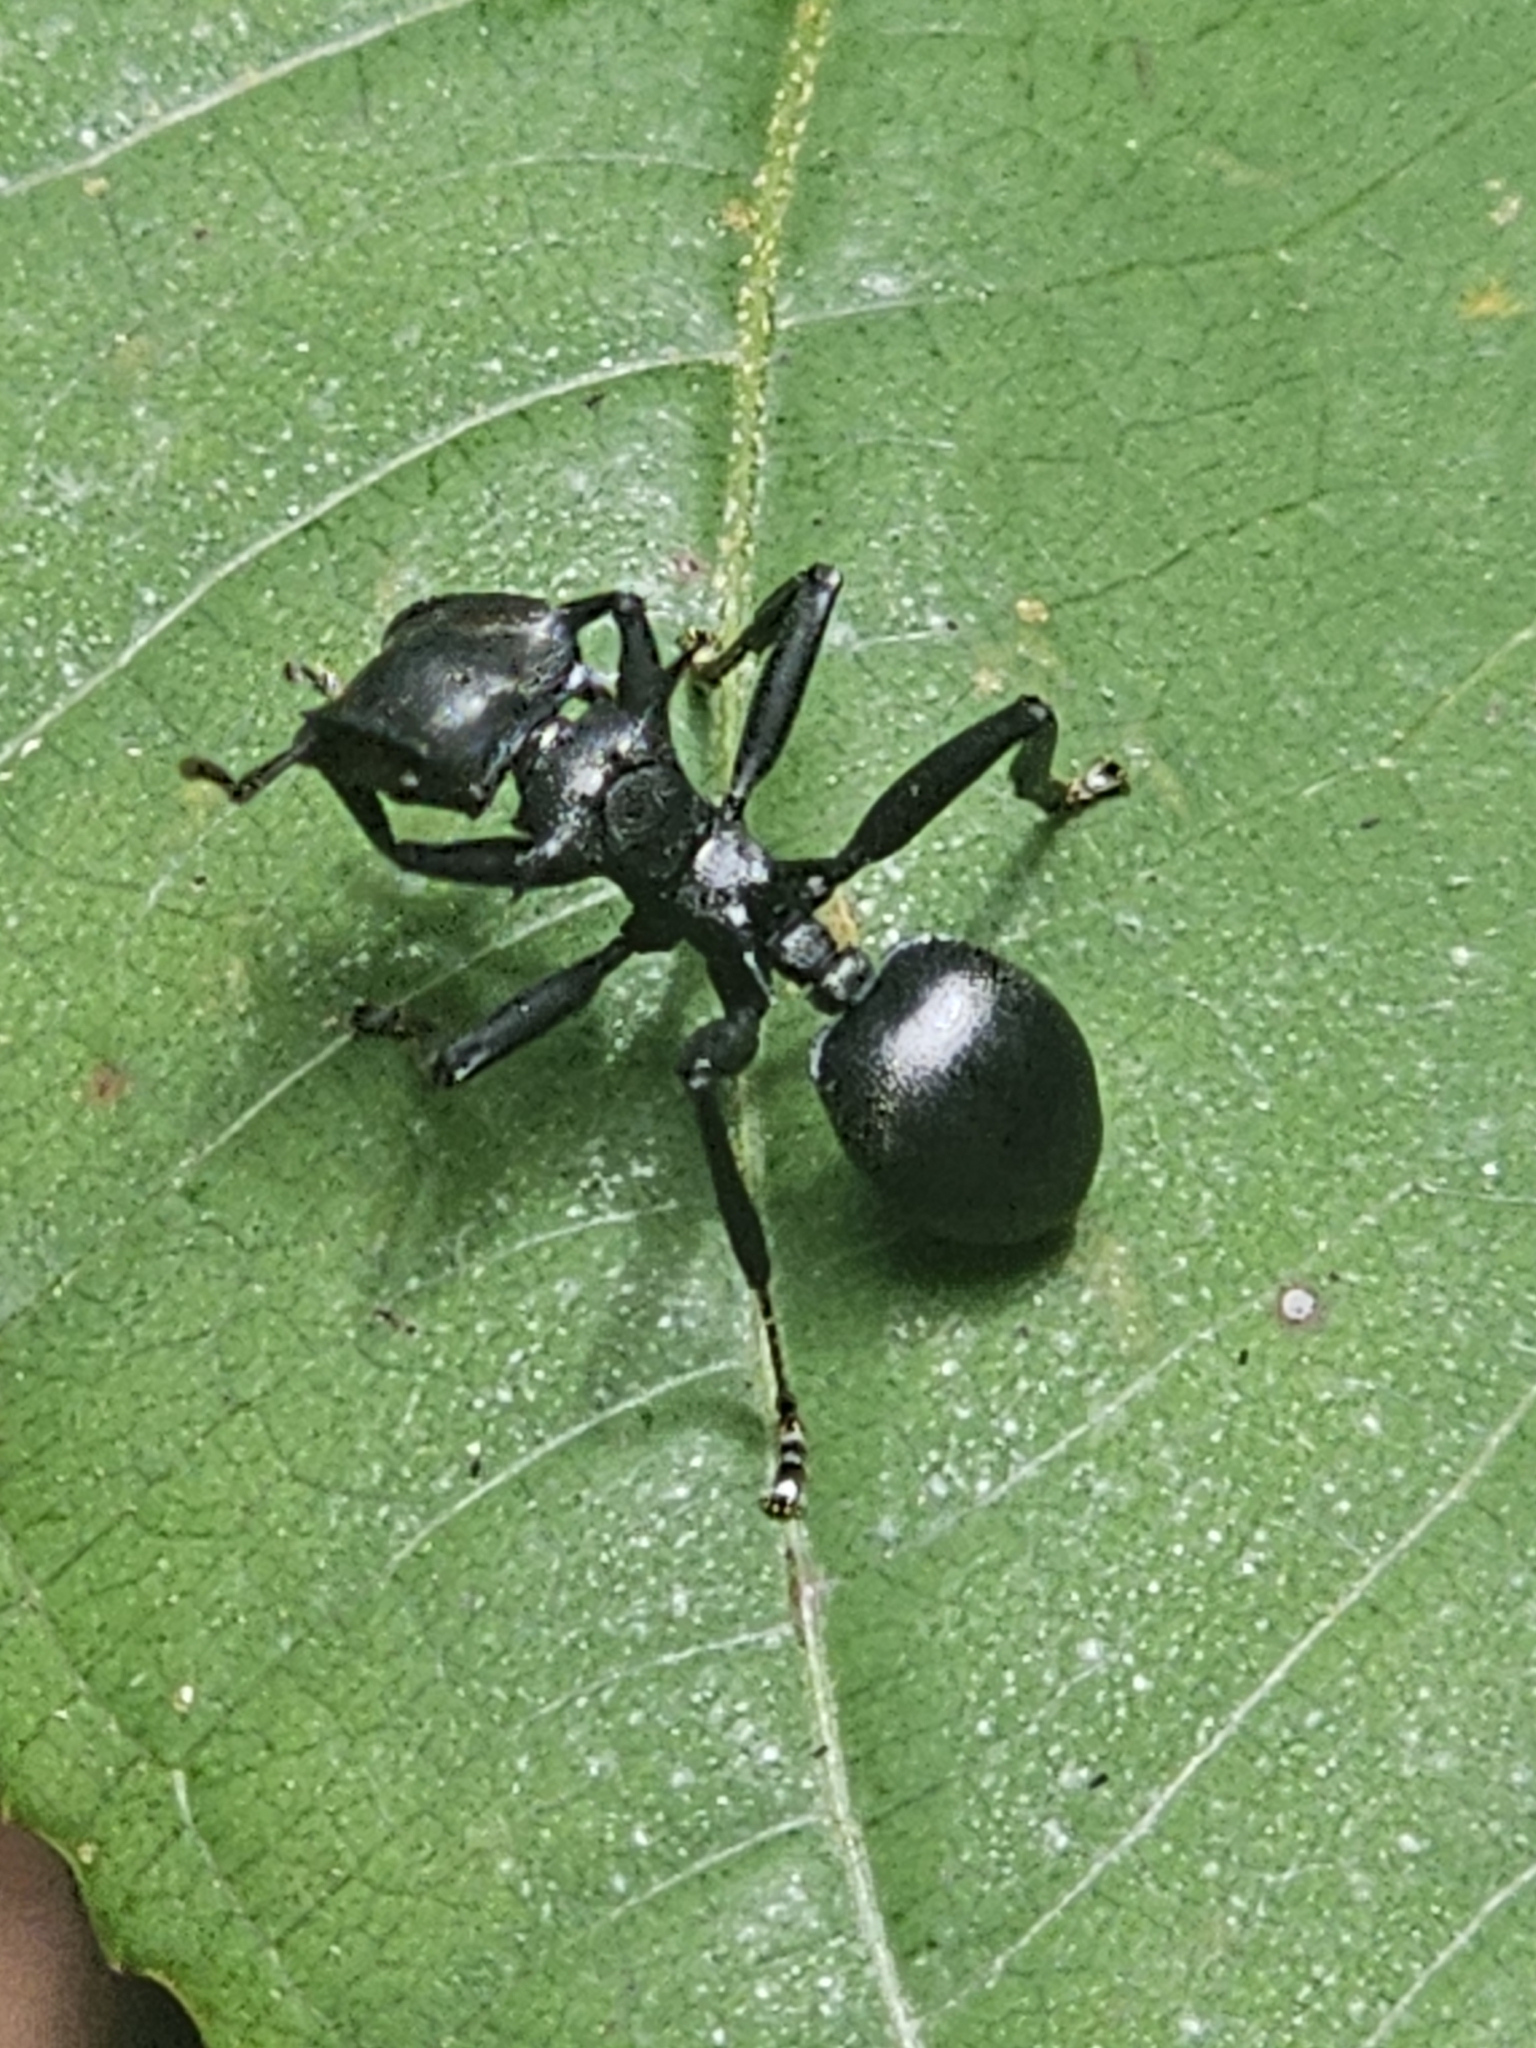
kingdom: Animalia
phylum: Arthropoda
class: Insecta
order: Hymenoptera
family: Formicidae
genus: Cephalotes
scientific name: Cephalotes atratus
